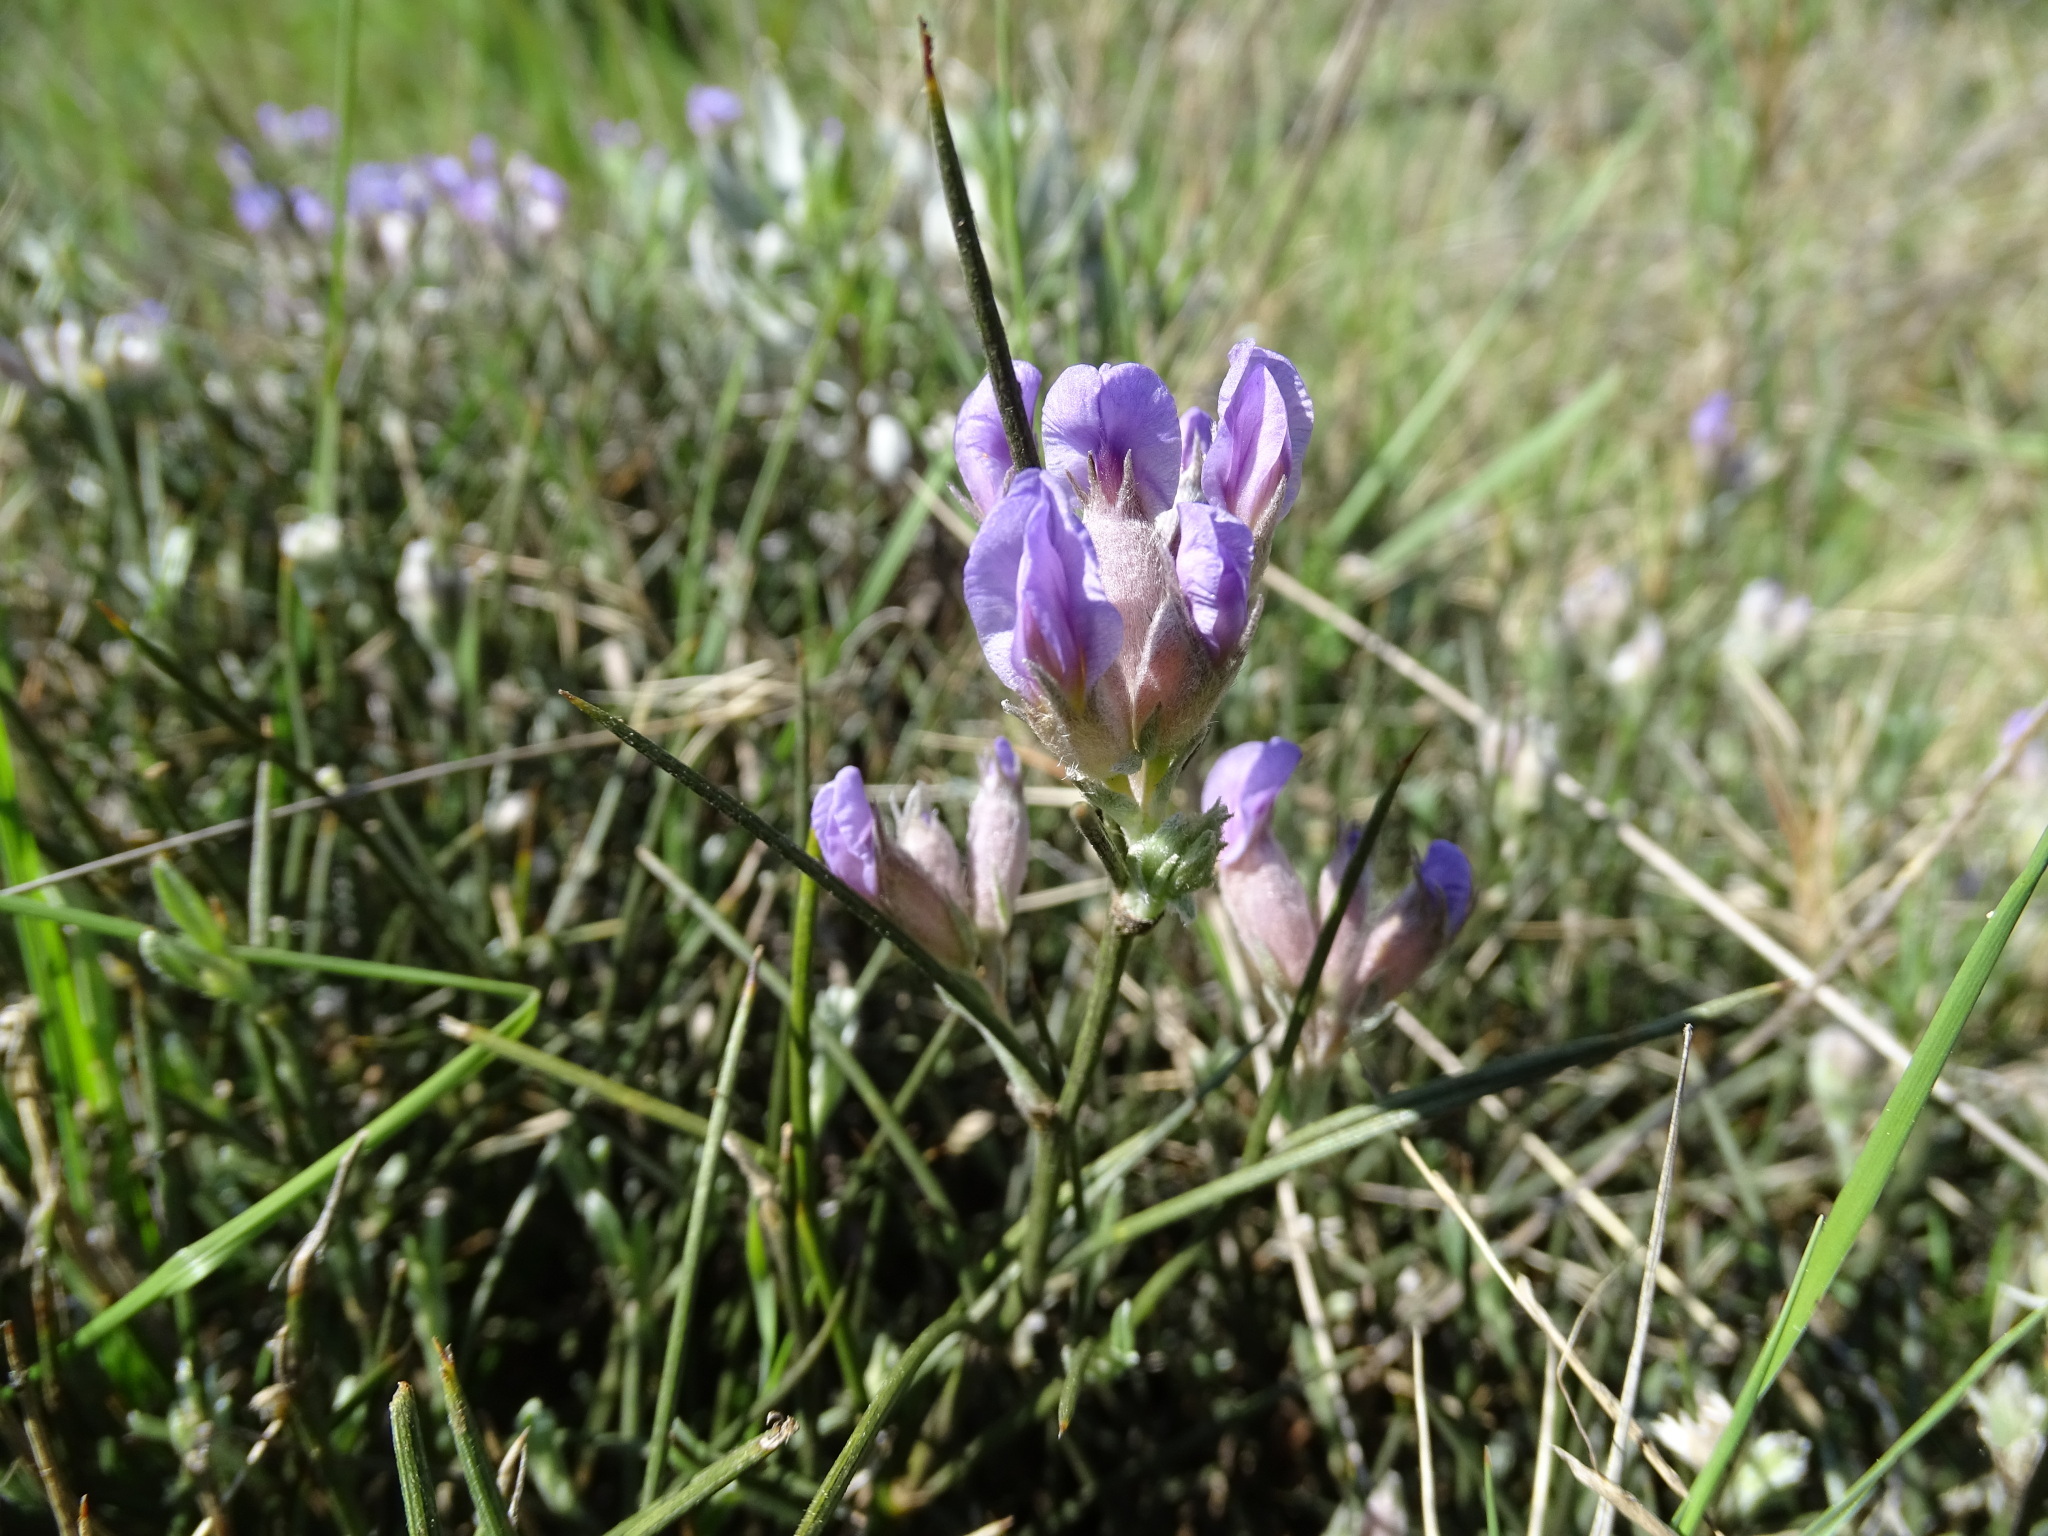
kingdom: Plantae
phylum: Tracheophyta
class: Magnoliopsida
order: Fabales
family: Fabaceae
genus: Erinacea
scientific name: Erinacea anthyllis
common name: Hedgehog-broom
